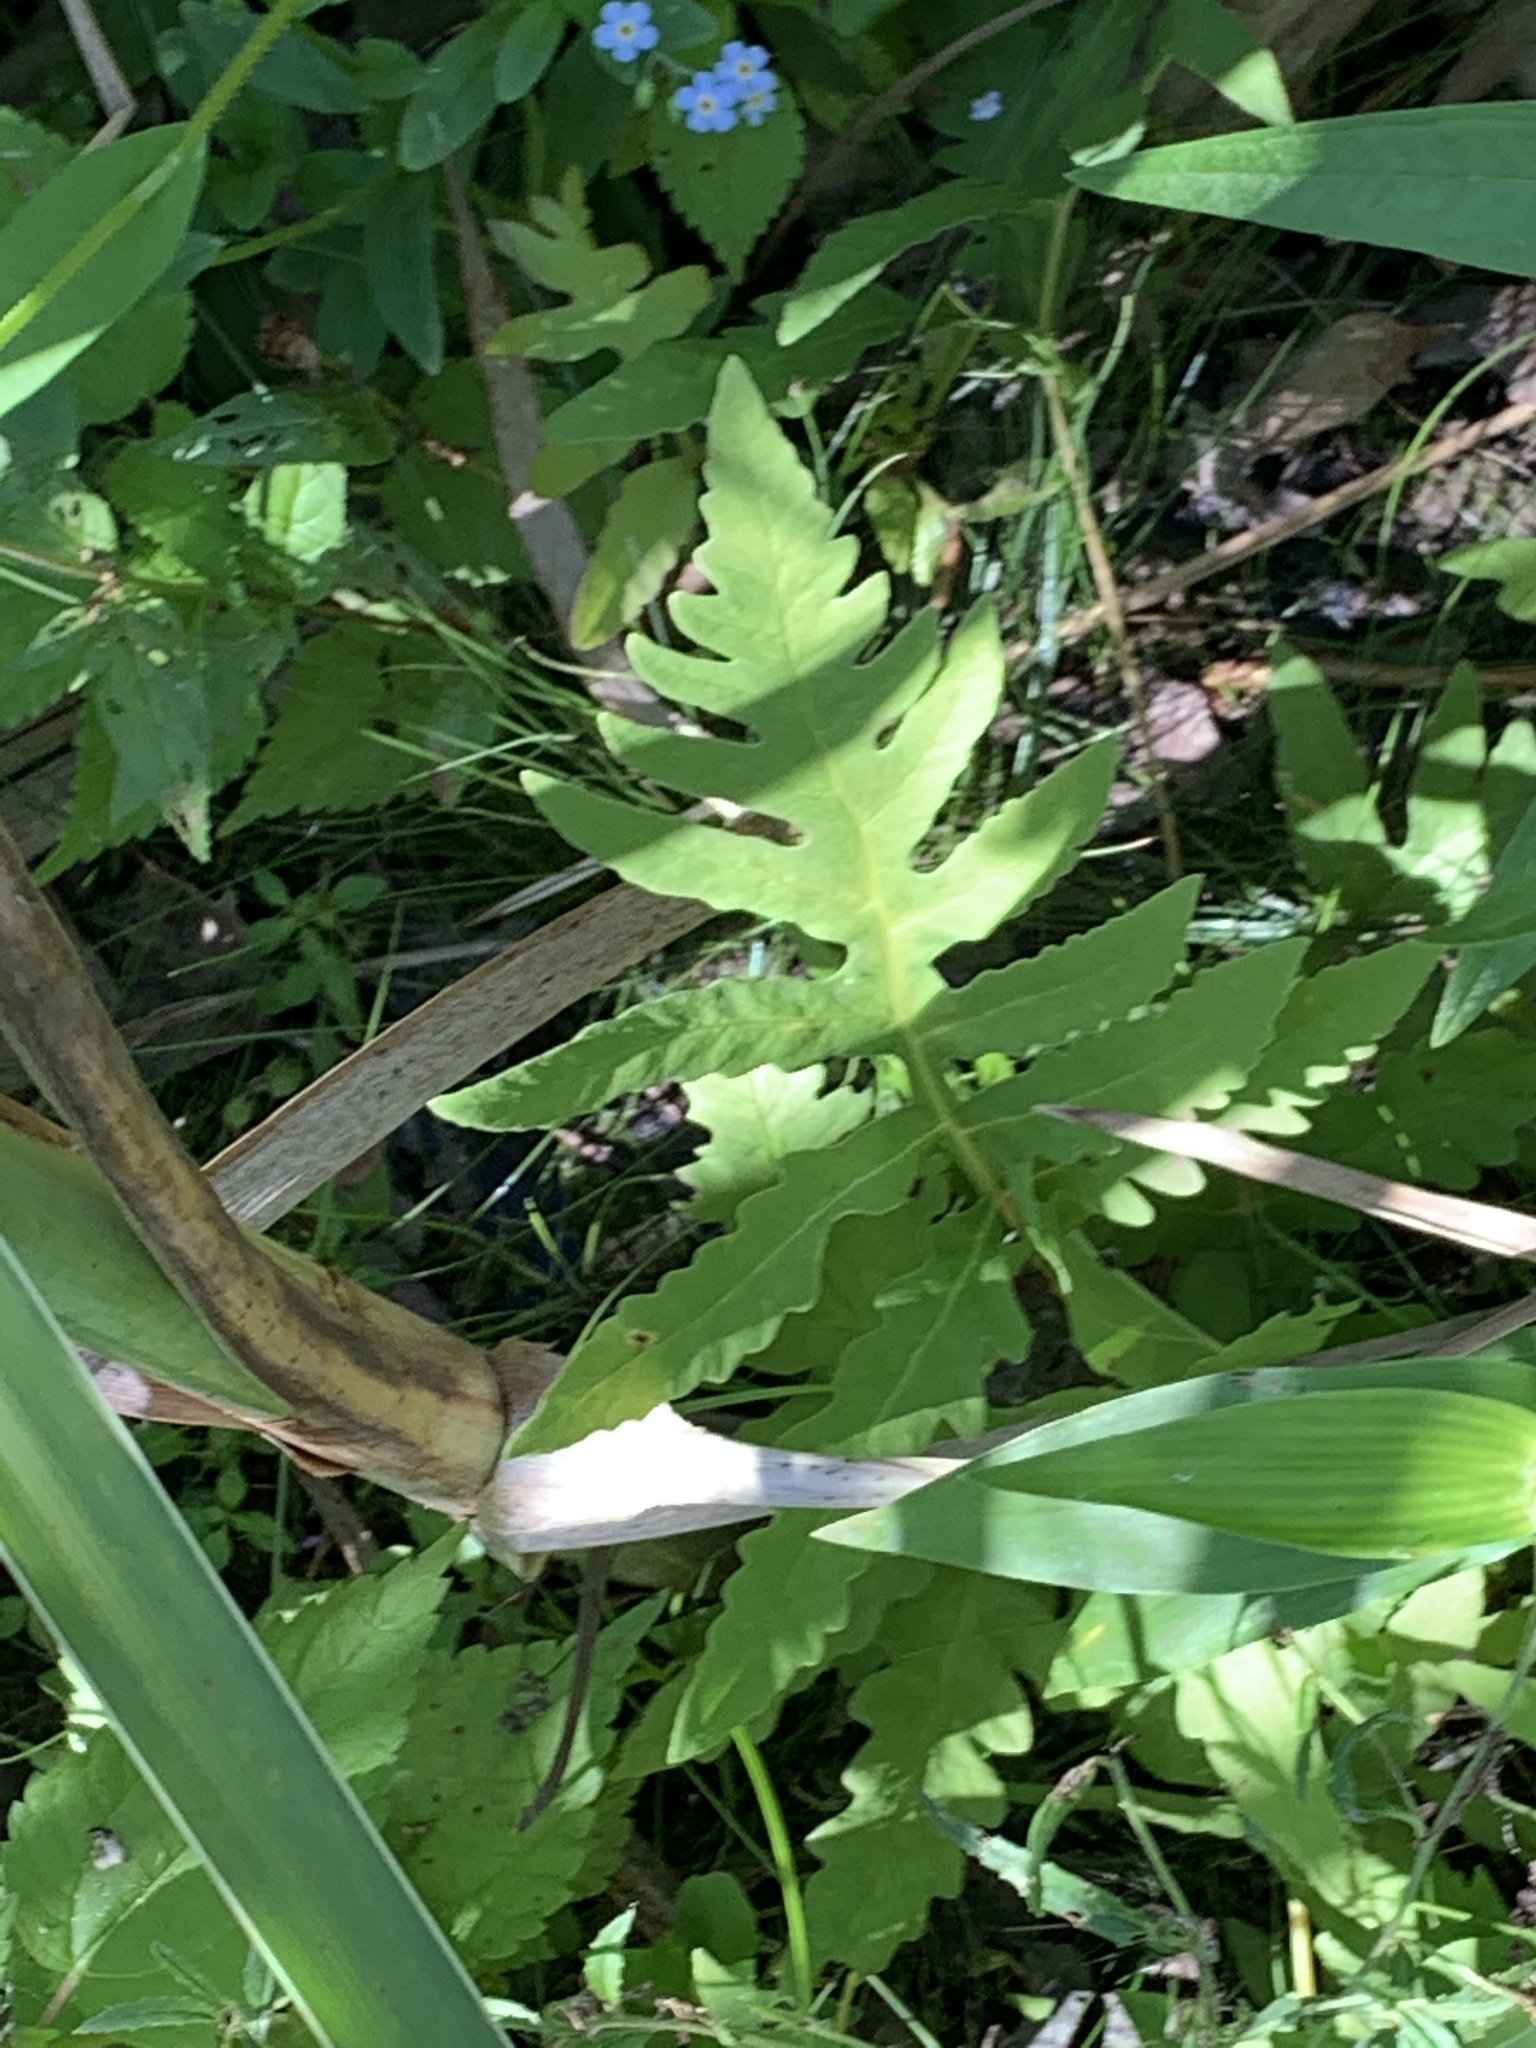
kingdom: Plantae
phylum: Tracheophyta
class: Polypodiopsida
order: Polypodiales
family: Onocleaceae
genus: Onoclea
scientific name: Onoclea sensibilis
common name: Sensitive fern
